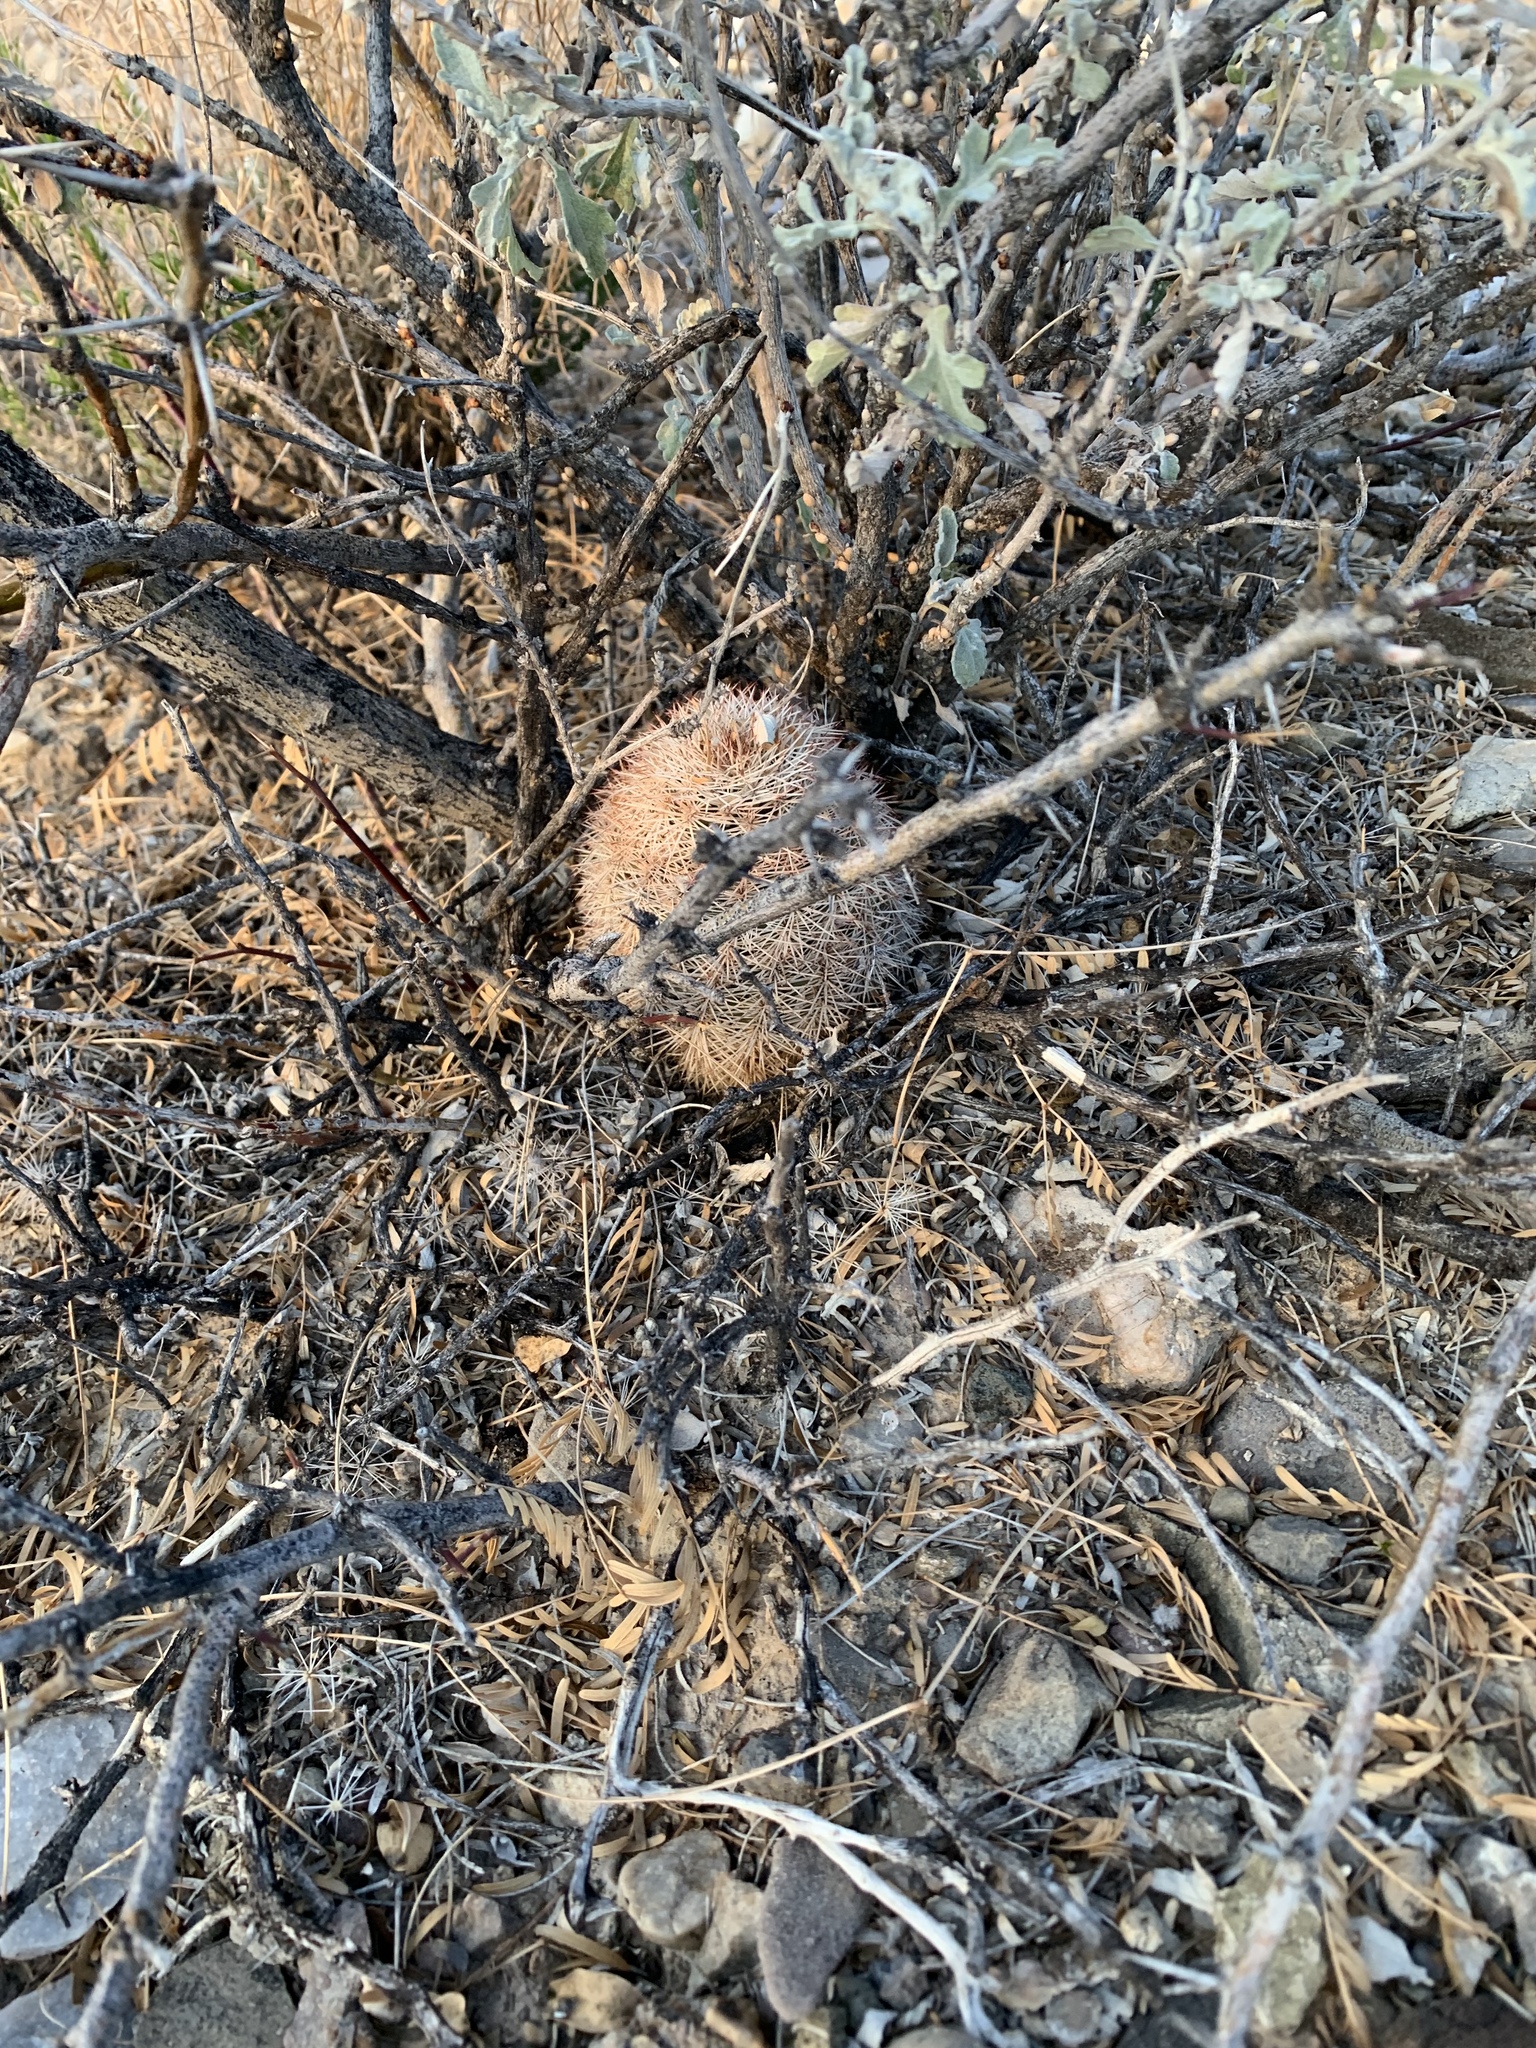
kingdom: Plantae
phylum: Tracheophyta
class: Magnoliopsida
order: Caryophyllales
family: Cactaceae
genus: Echinocereus
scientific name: Echinocereus dasyacanthus
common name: Spiny hedgehog cactus
